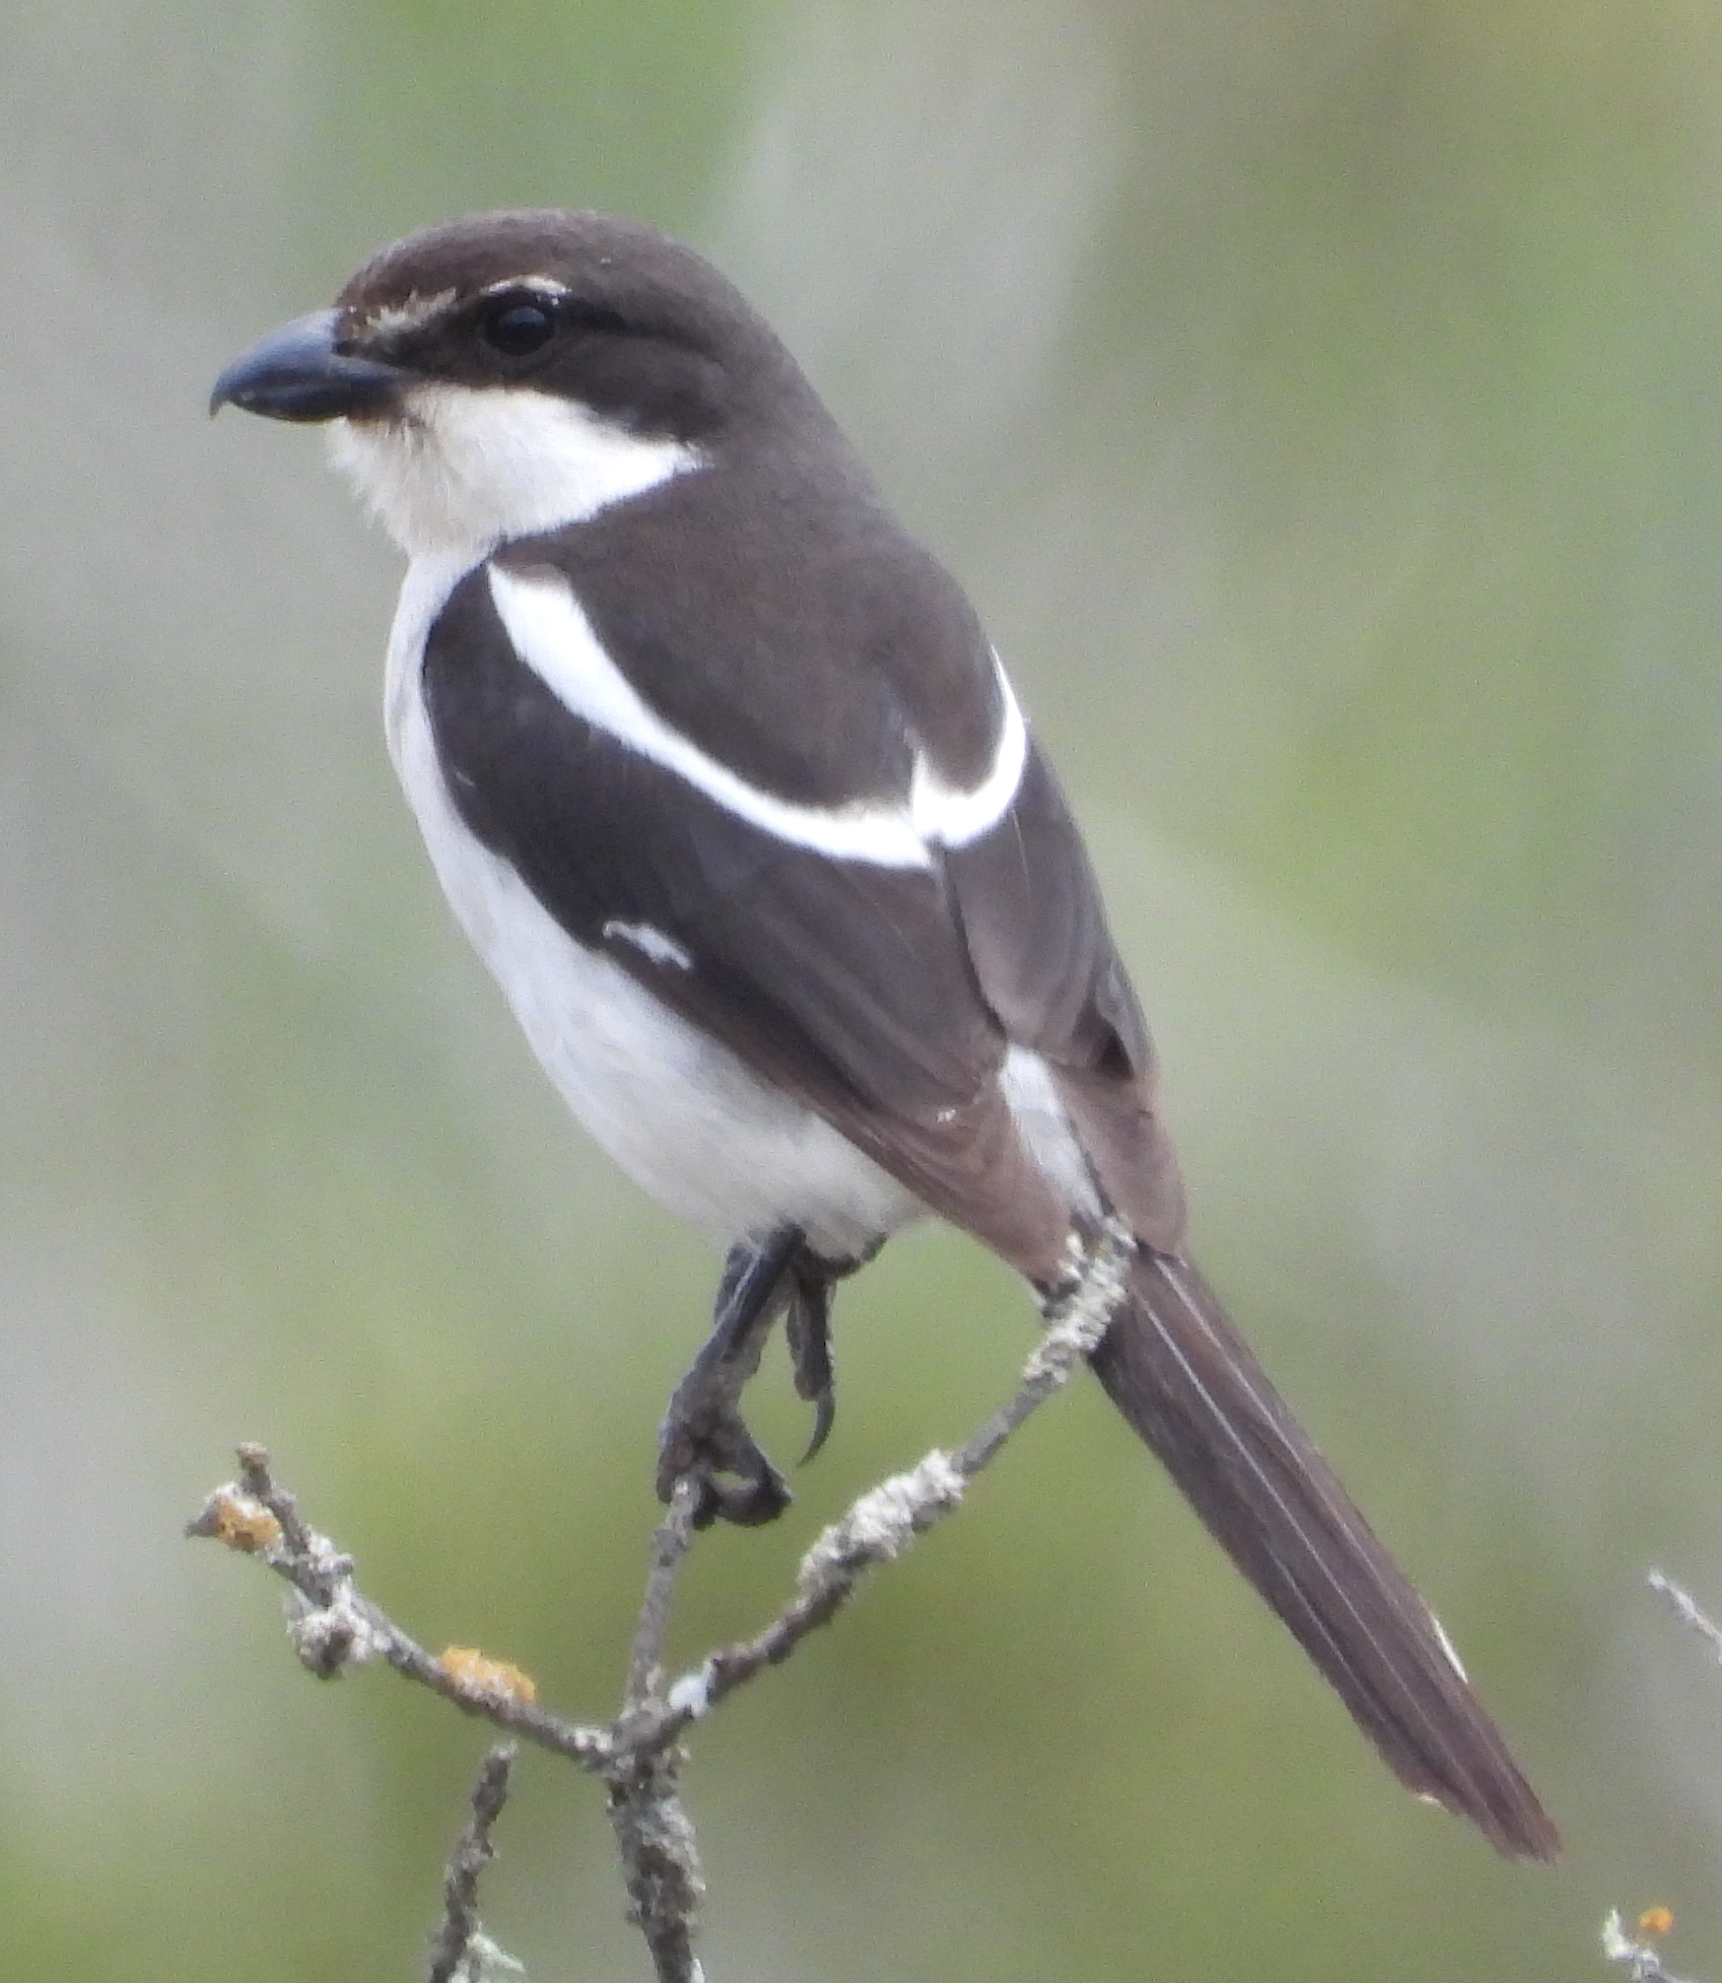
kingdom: Animalia
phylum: Chordata
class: Aves
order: Passeriformes
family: Laniidae
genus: Lanius
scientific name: Lanius collaris
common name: Southern fiscal
